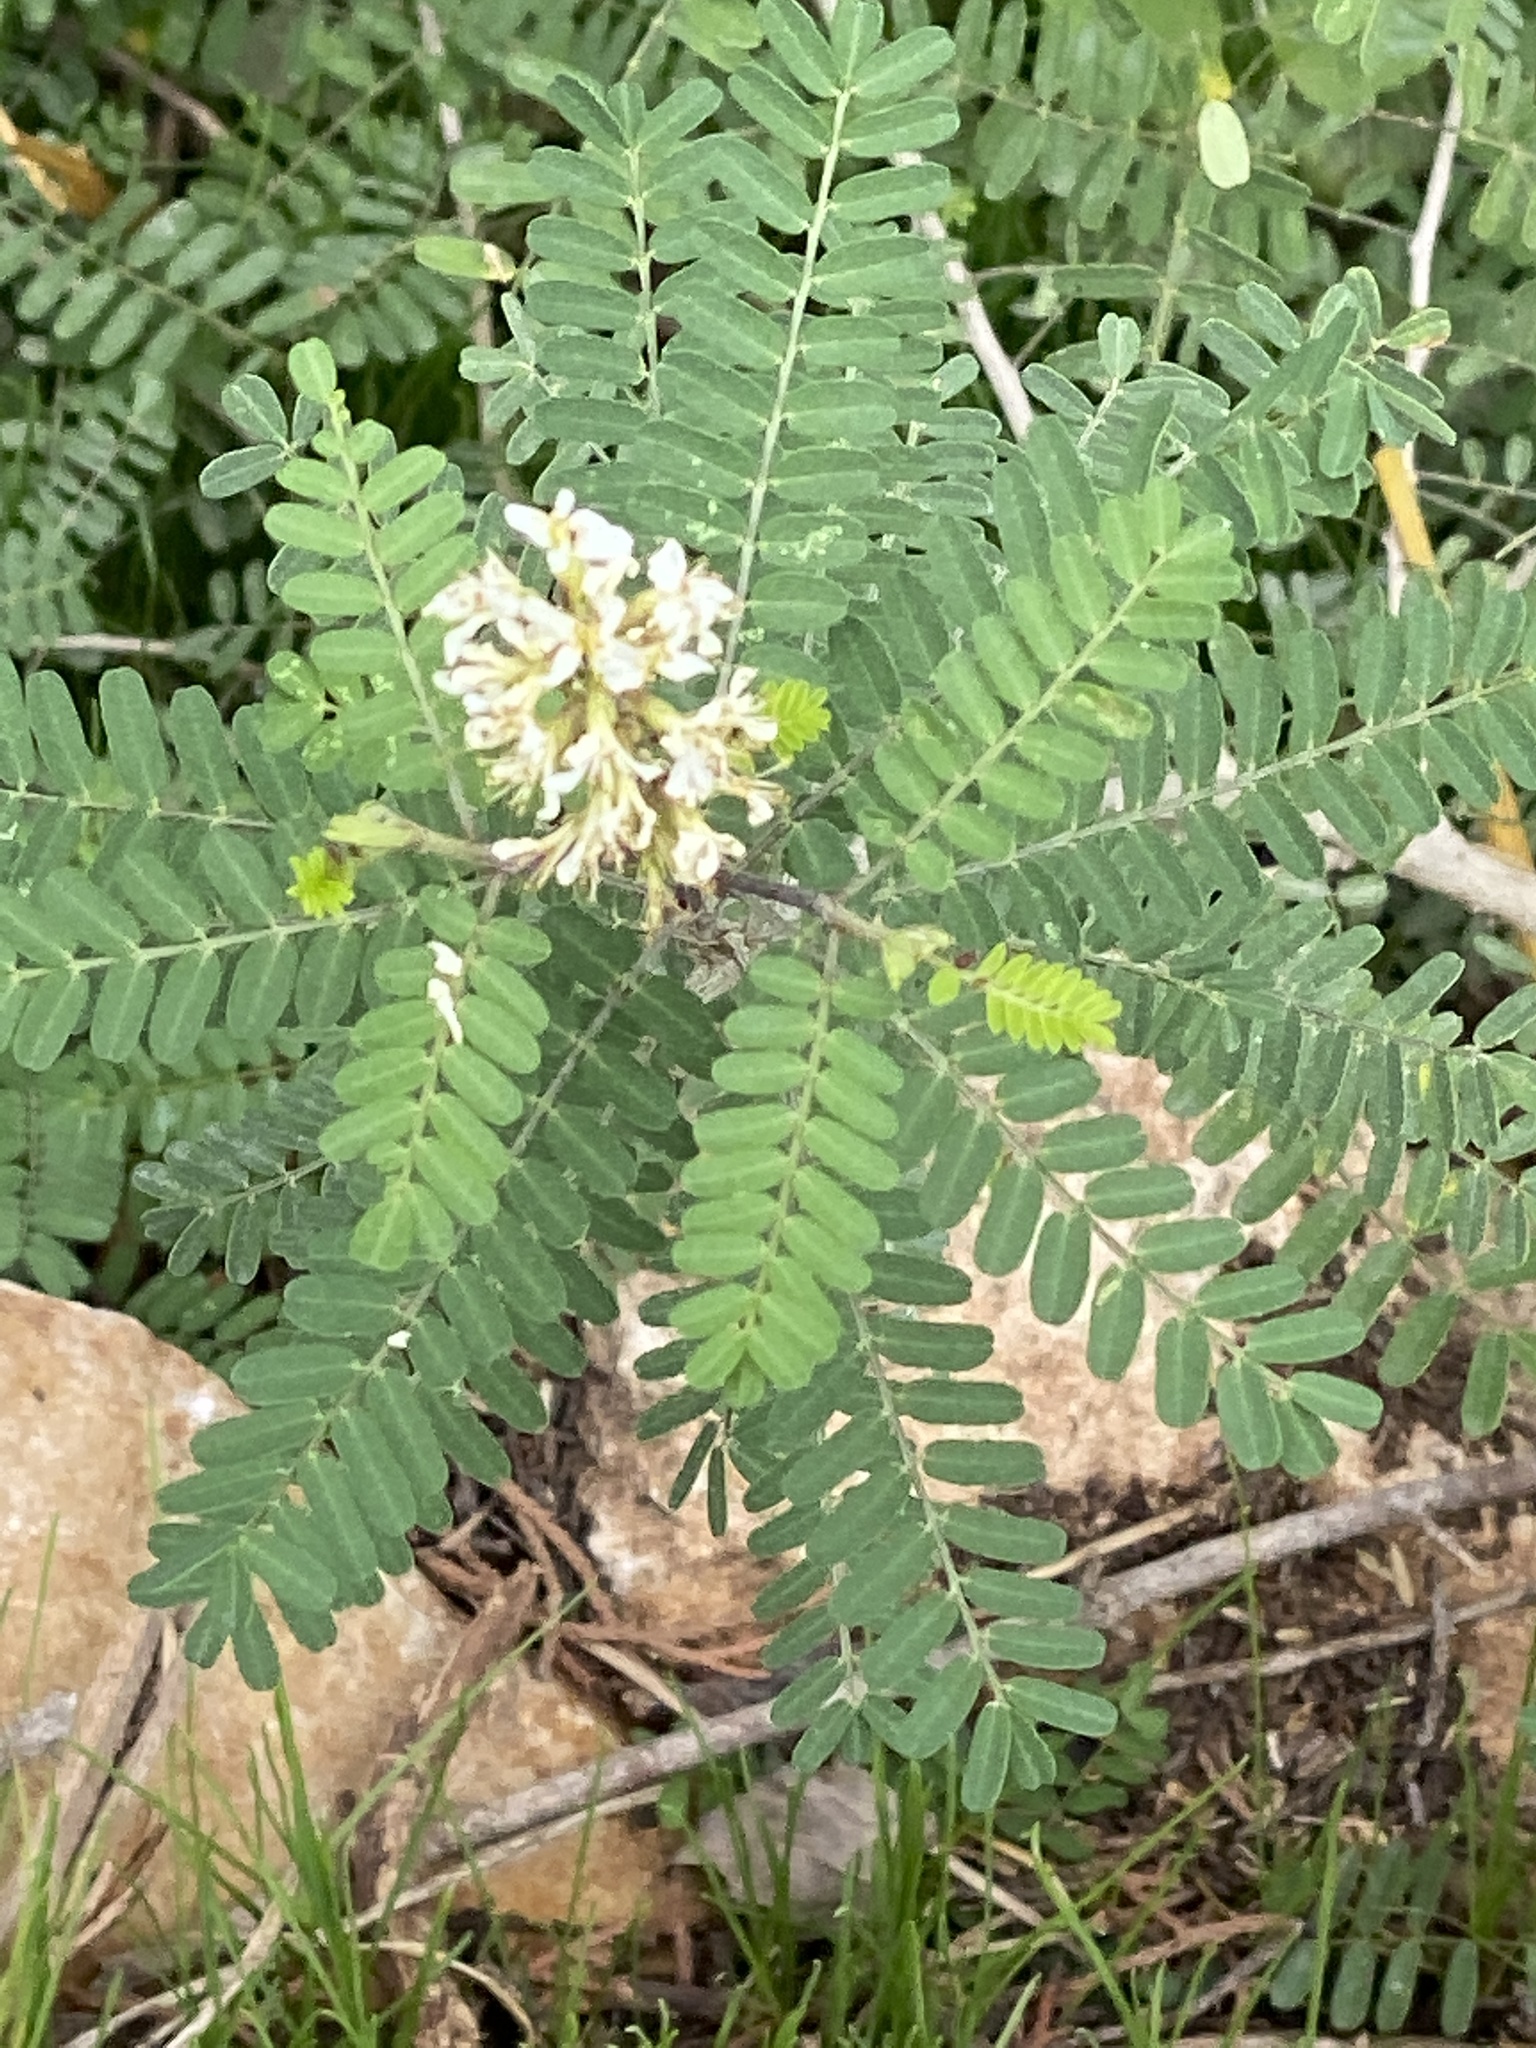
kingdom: Plantae
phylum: Tracheophyta
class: Magnoliopsida
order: Fabales
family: Fabaceae
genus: Eysenhardtia
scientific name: Eysenhardtia texana
